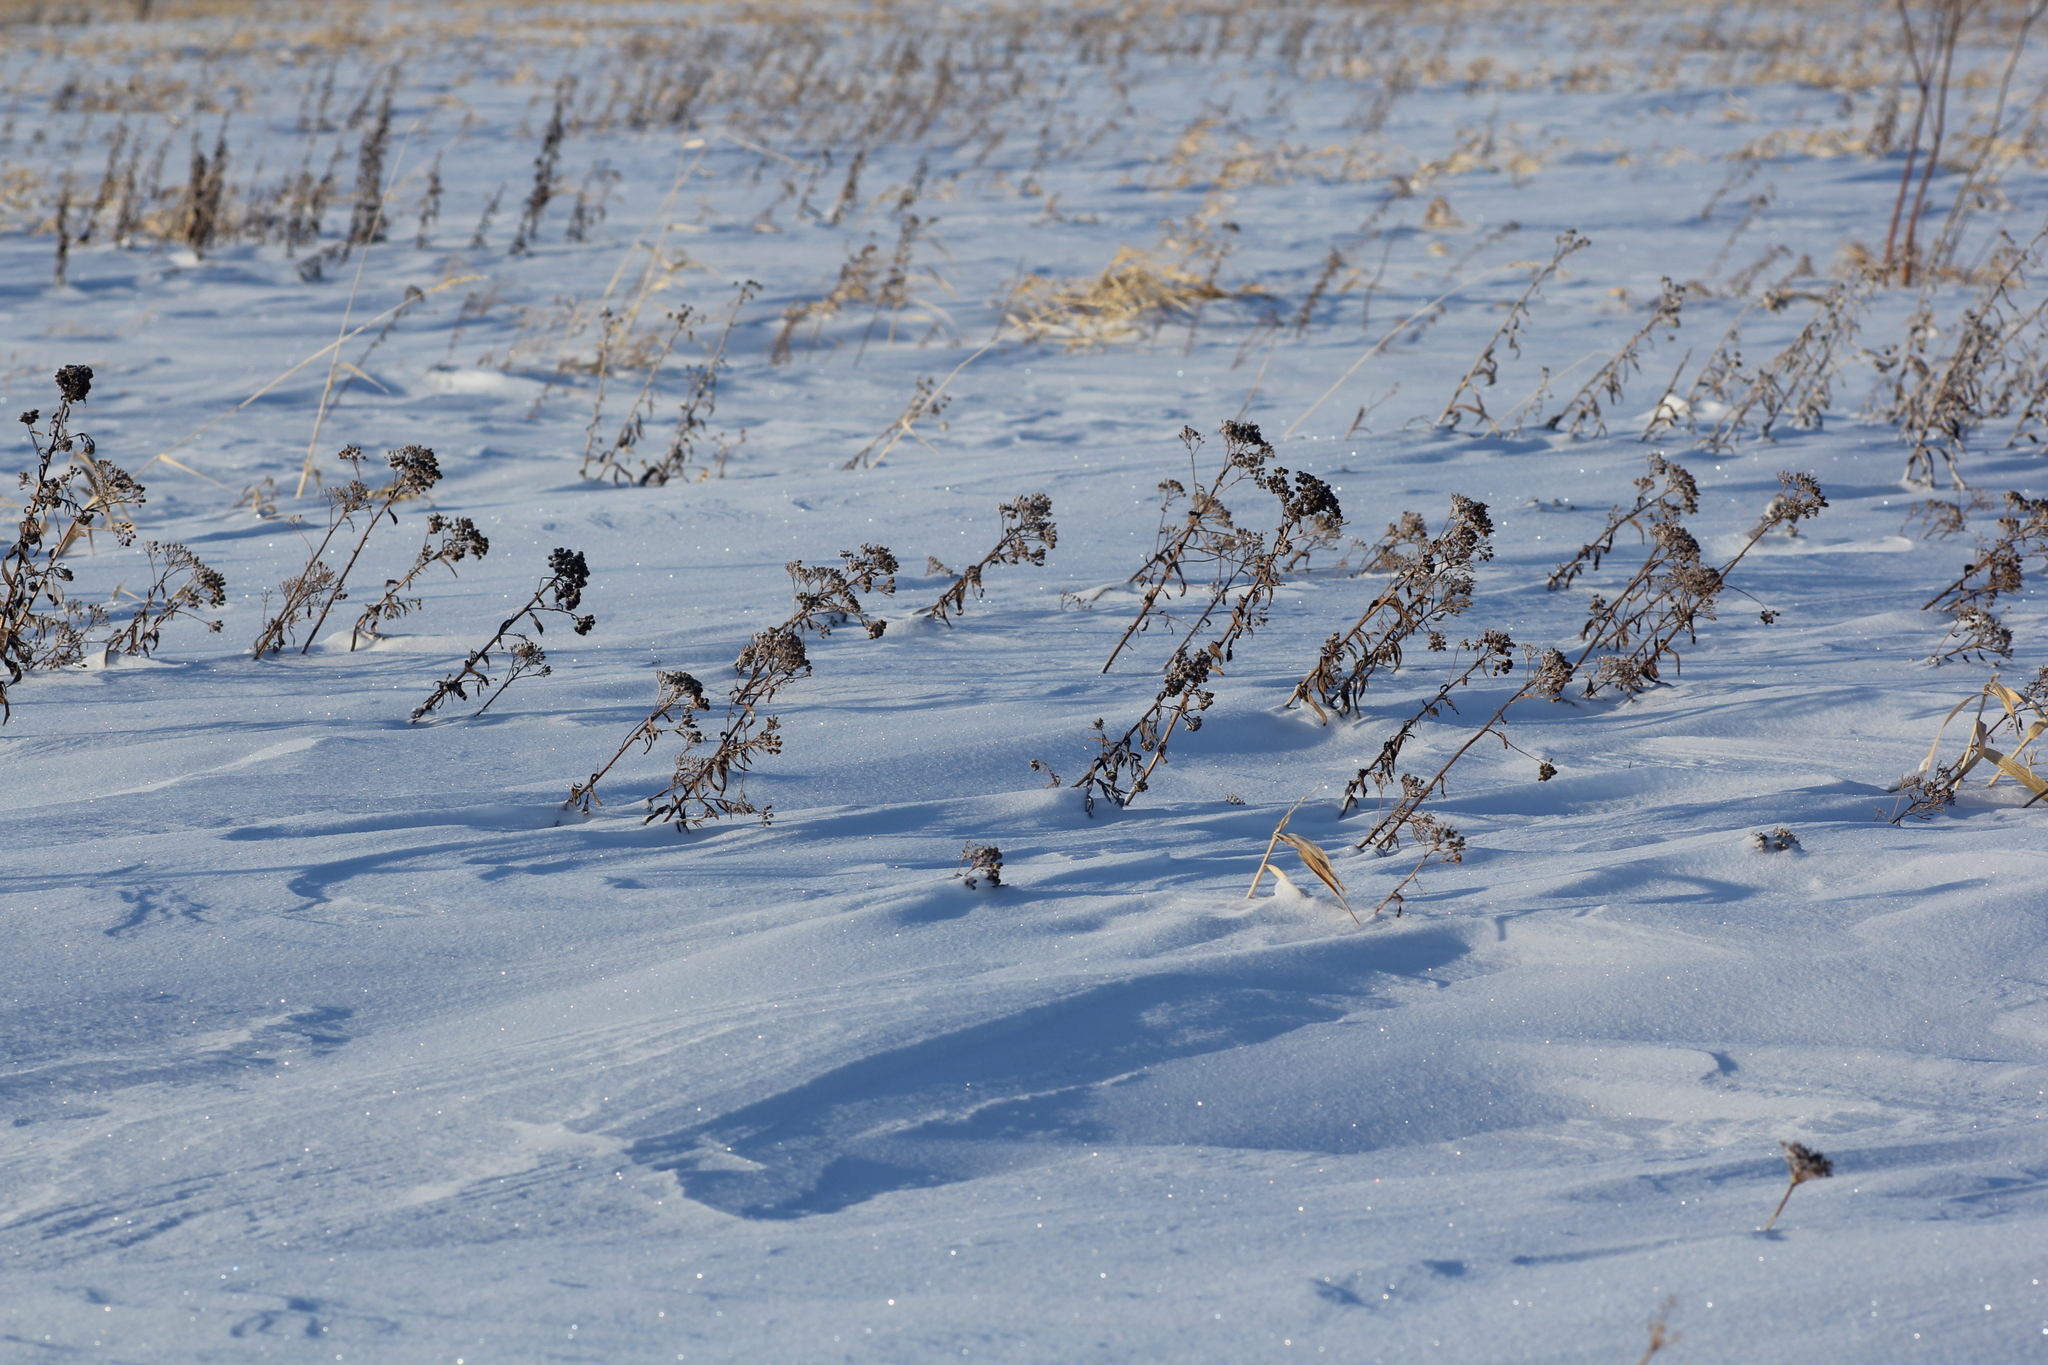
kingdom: Plantae
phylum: Tracheophyta
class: Magnoliopsida
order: Asterales
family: Asteraceae
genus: Achillea
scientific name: Achillea asiatica
